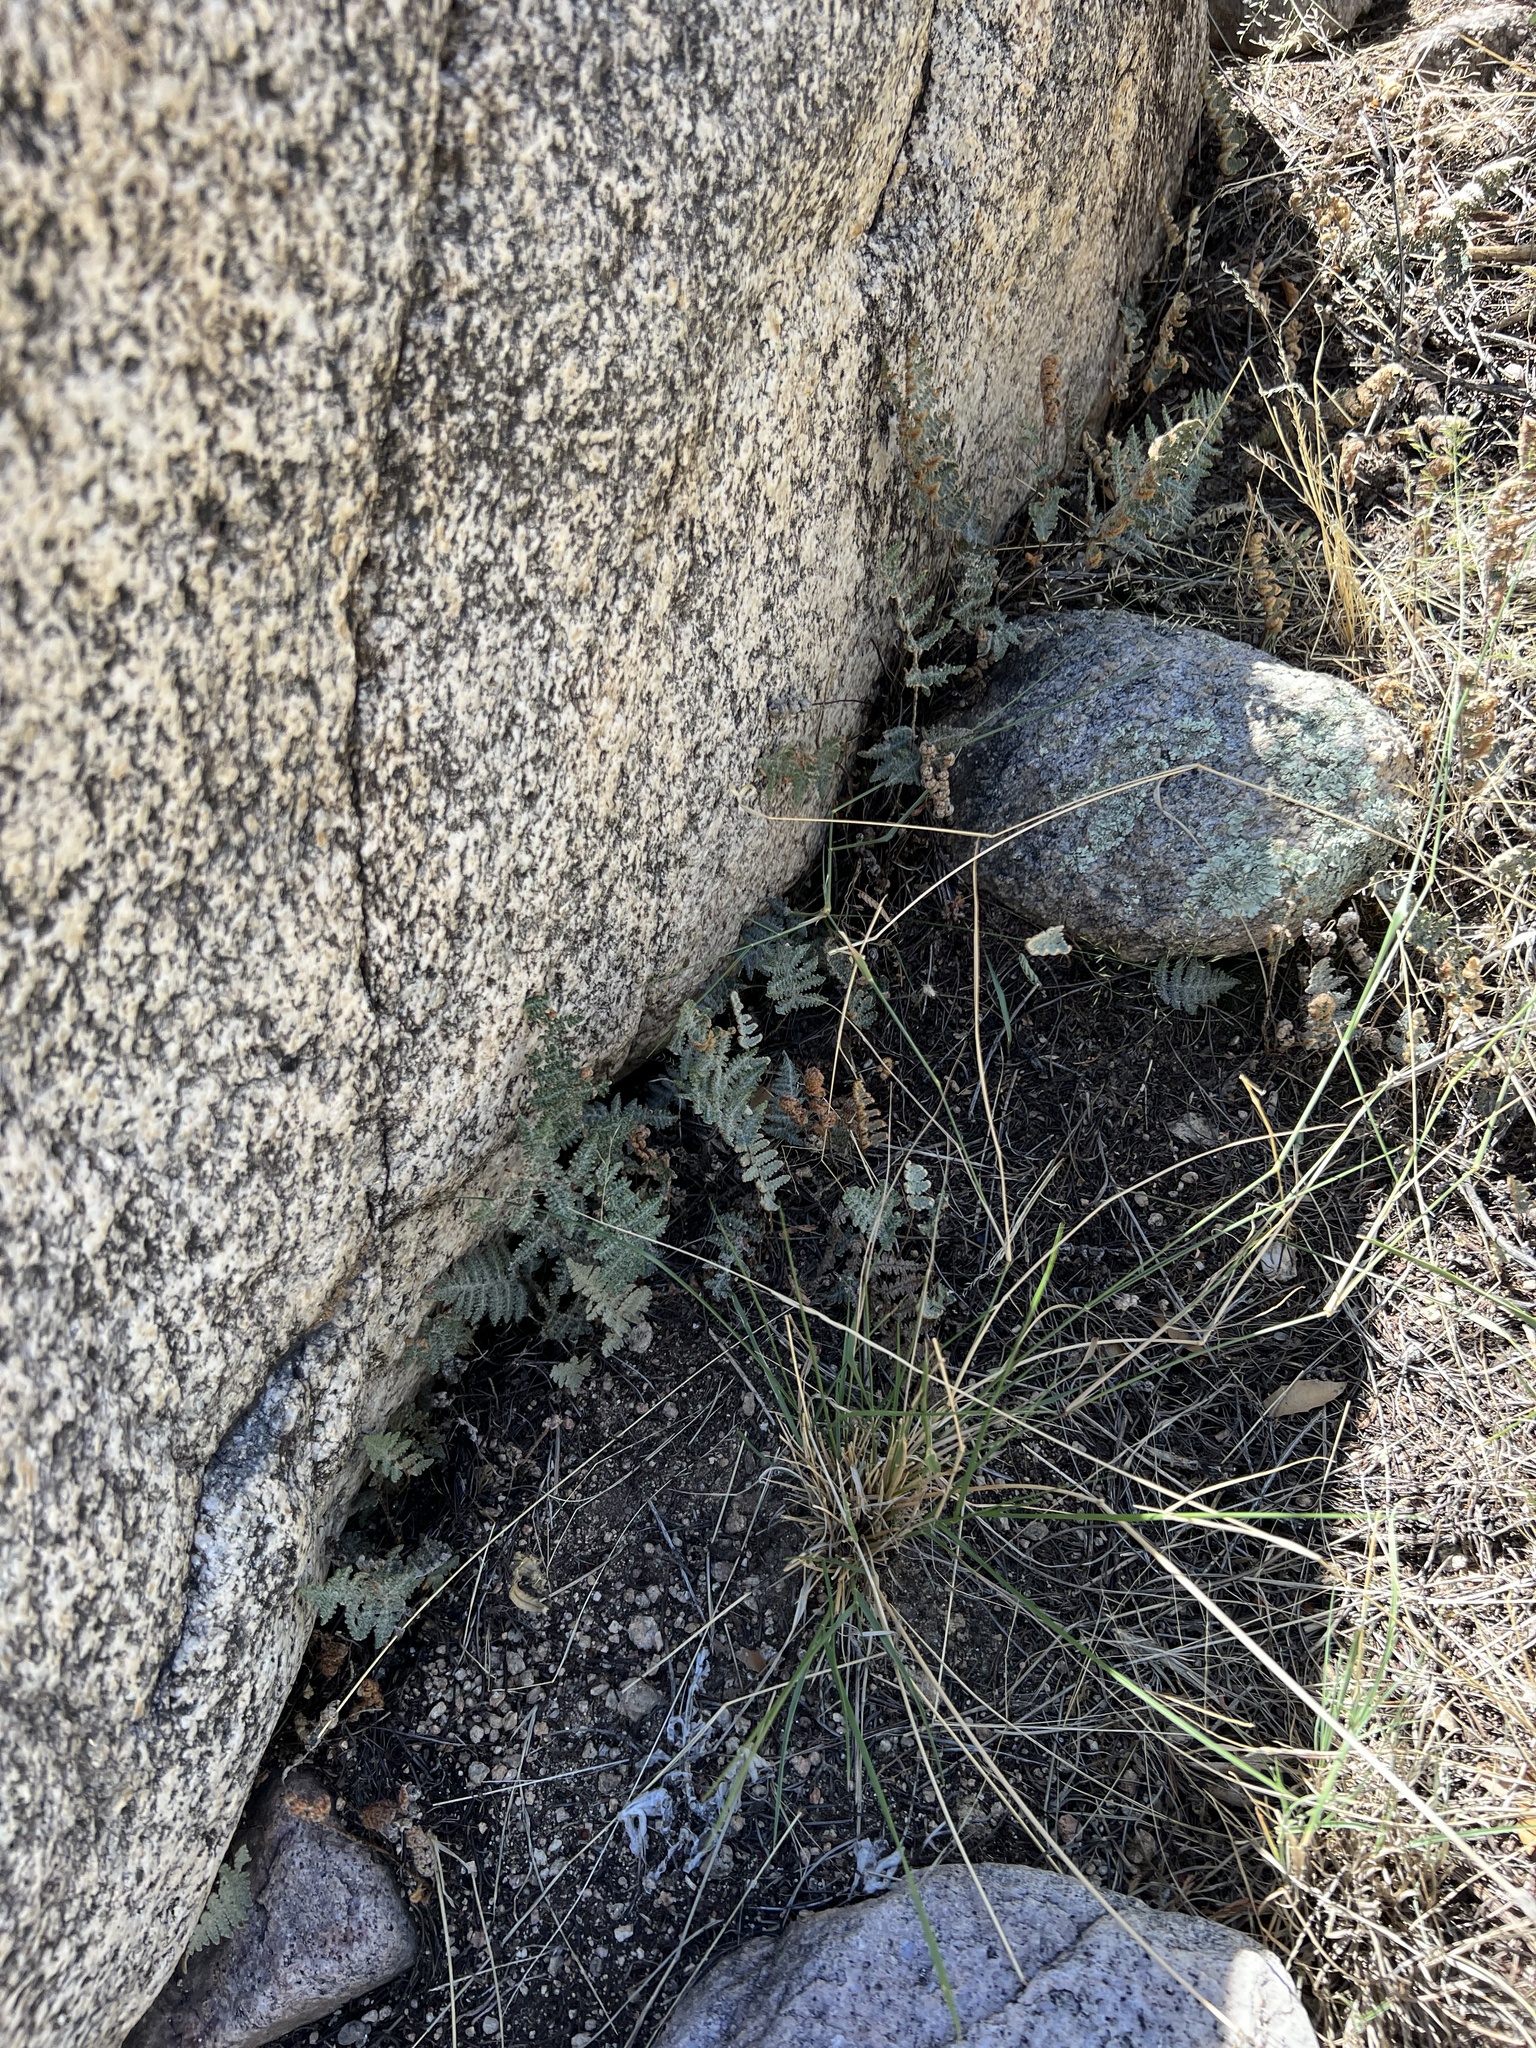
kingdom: Plantae
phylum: Tracheophyta
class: Polypodiopsida
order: Polypodiales
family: Pteridaceae
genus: Myriopteris
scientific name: Myriopteris lindheimeri
